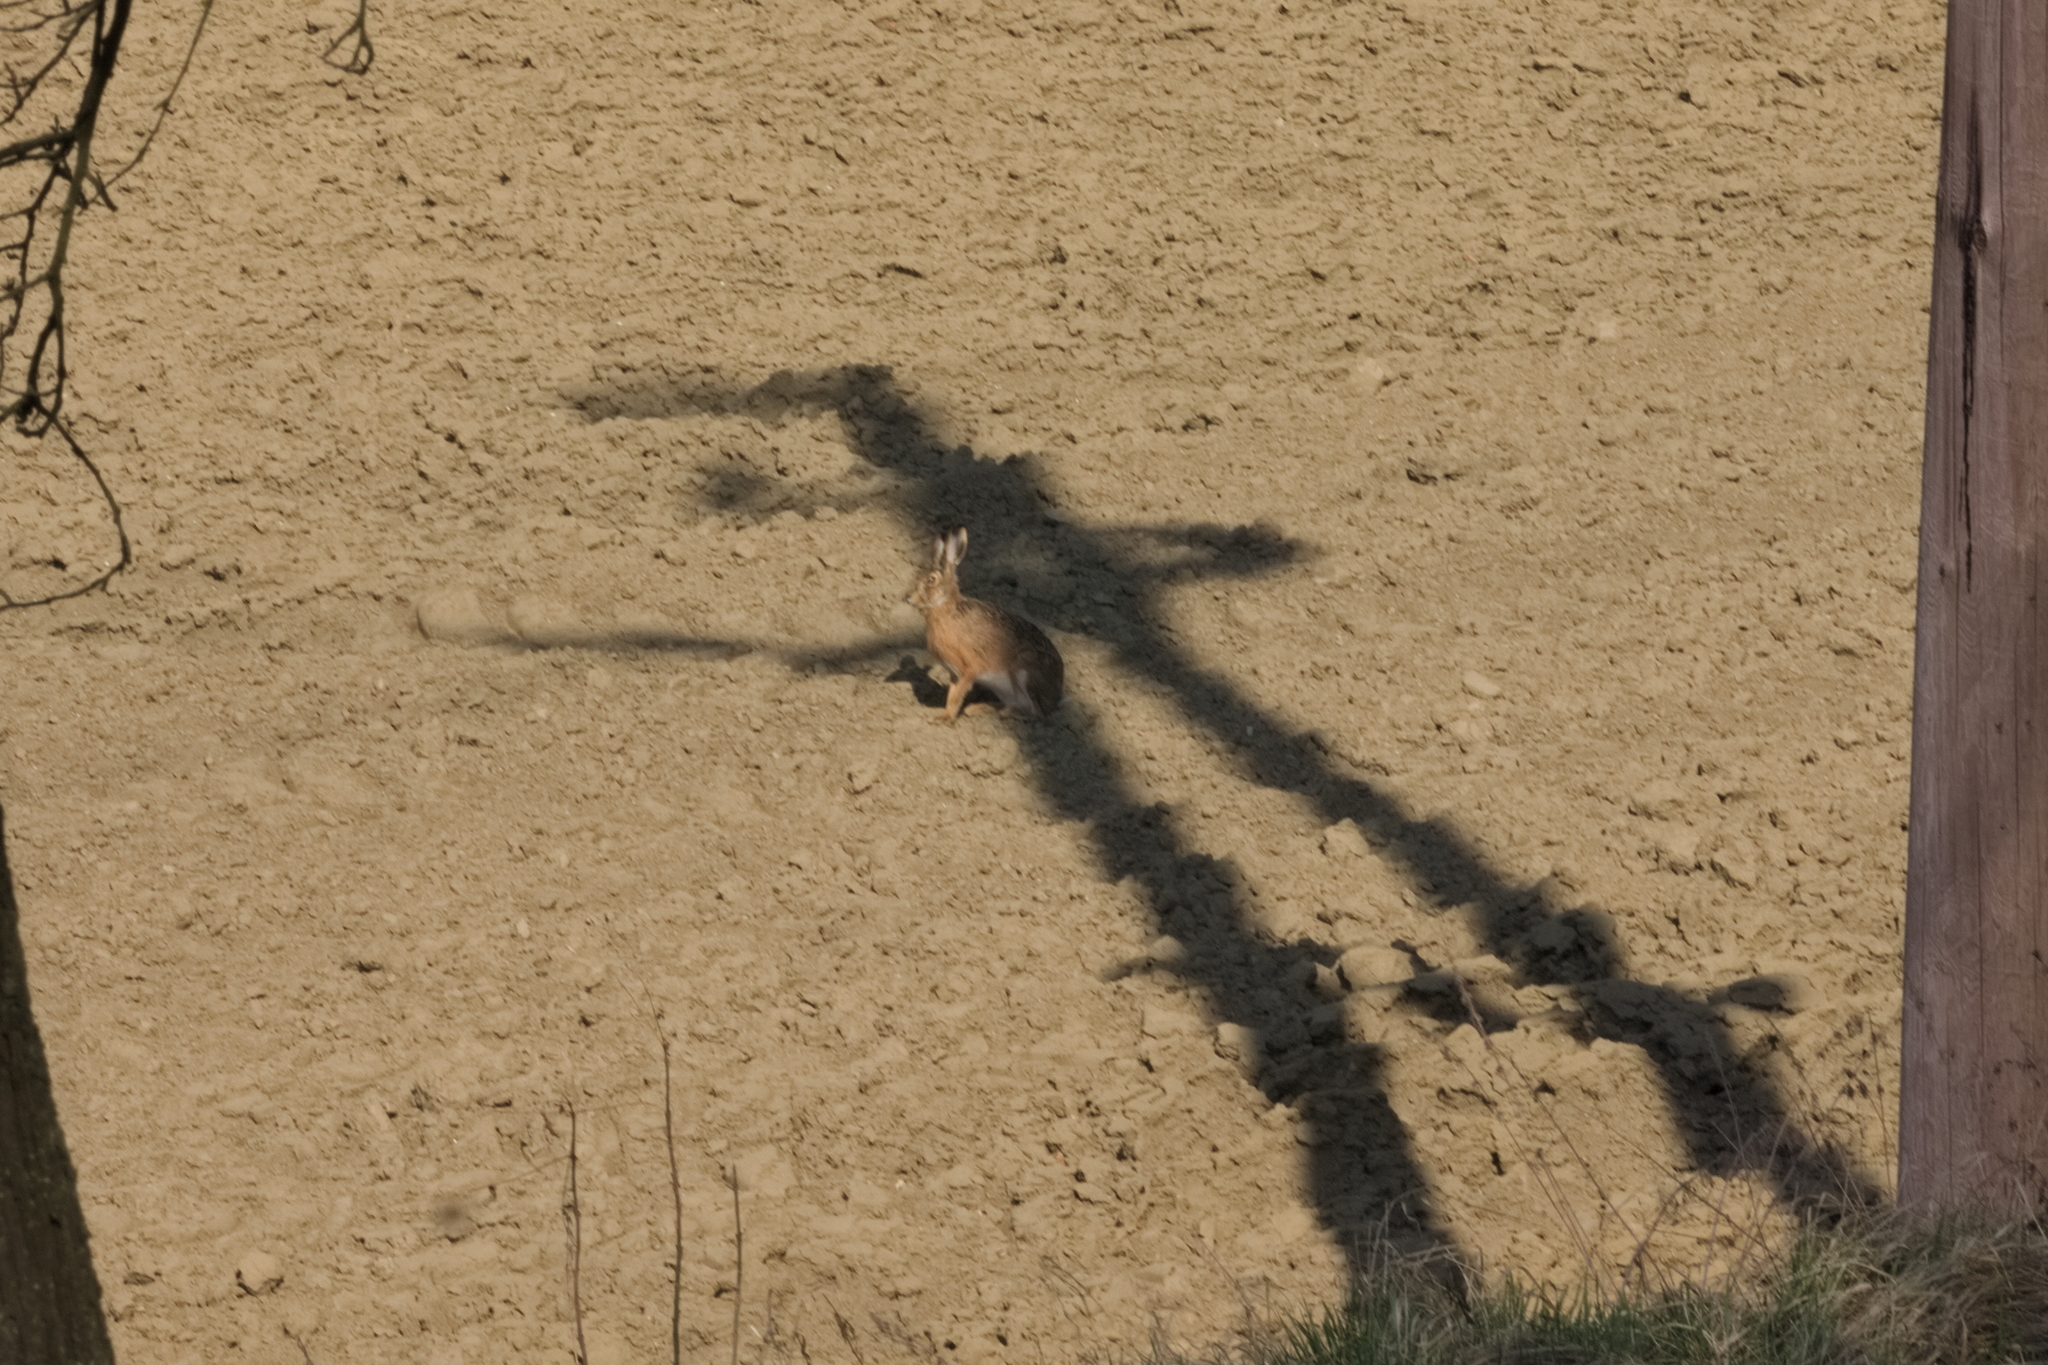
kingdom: Animalia
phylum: Chordata
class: Mammalia
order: Lagomorpha
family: Leporidae
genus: Lepus
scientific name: Lepus europaeus
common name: European hare
